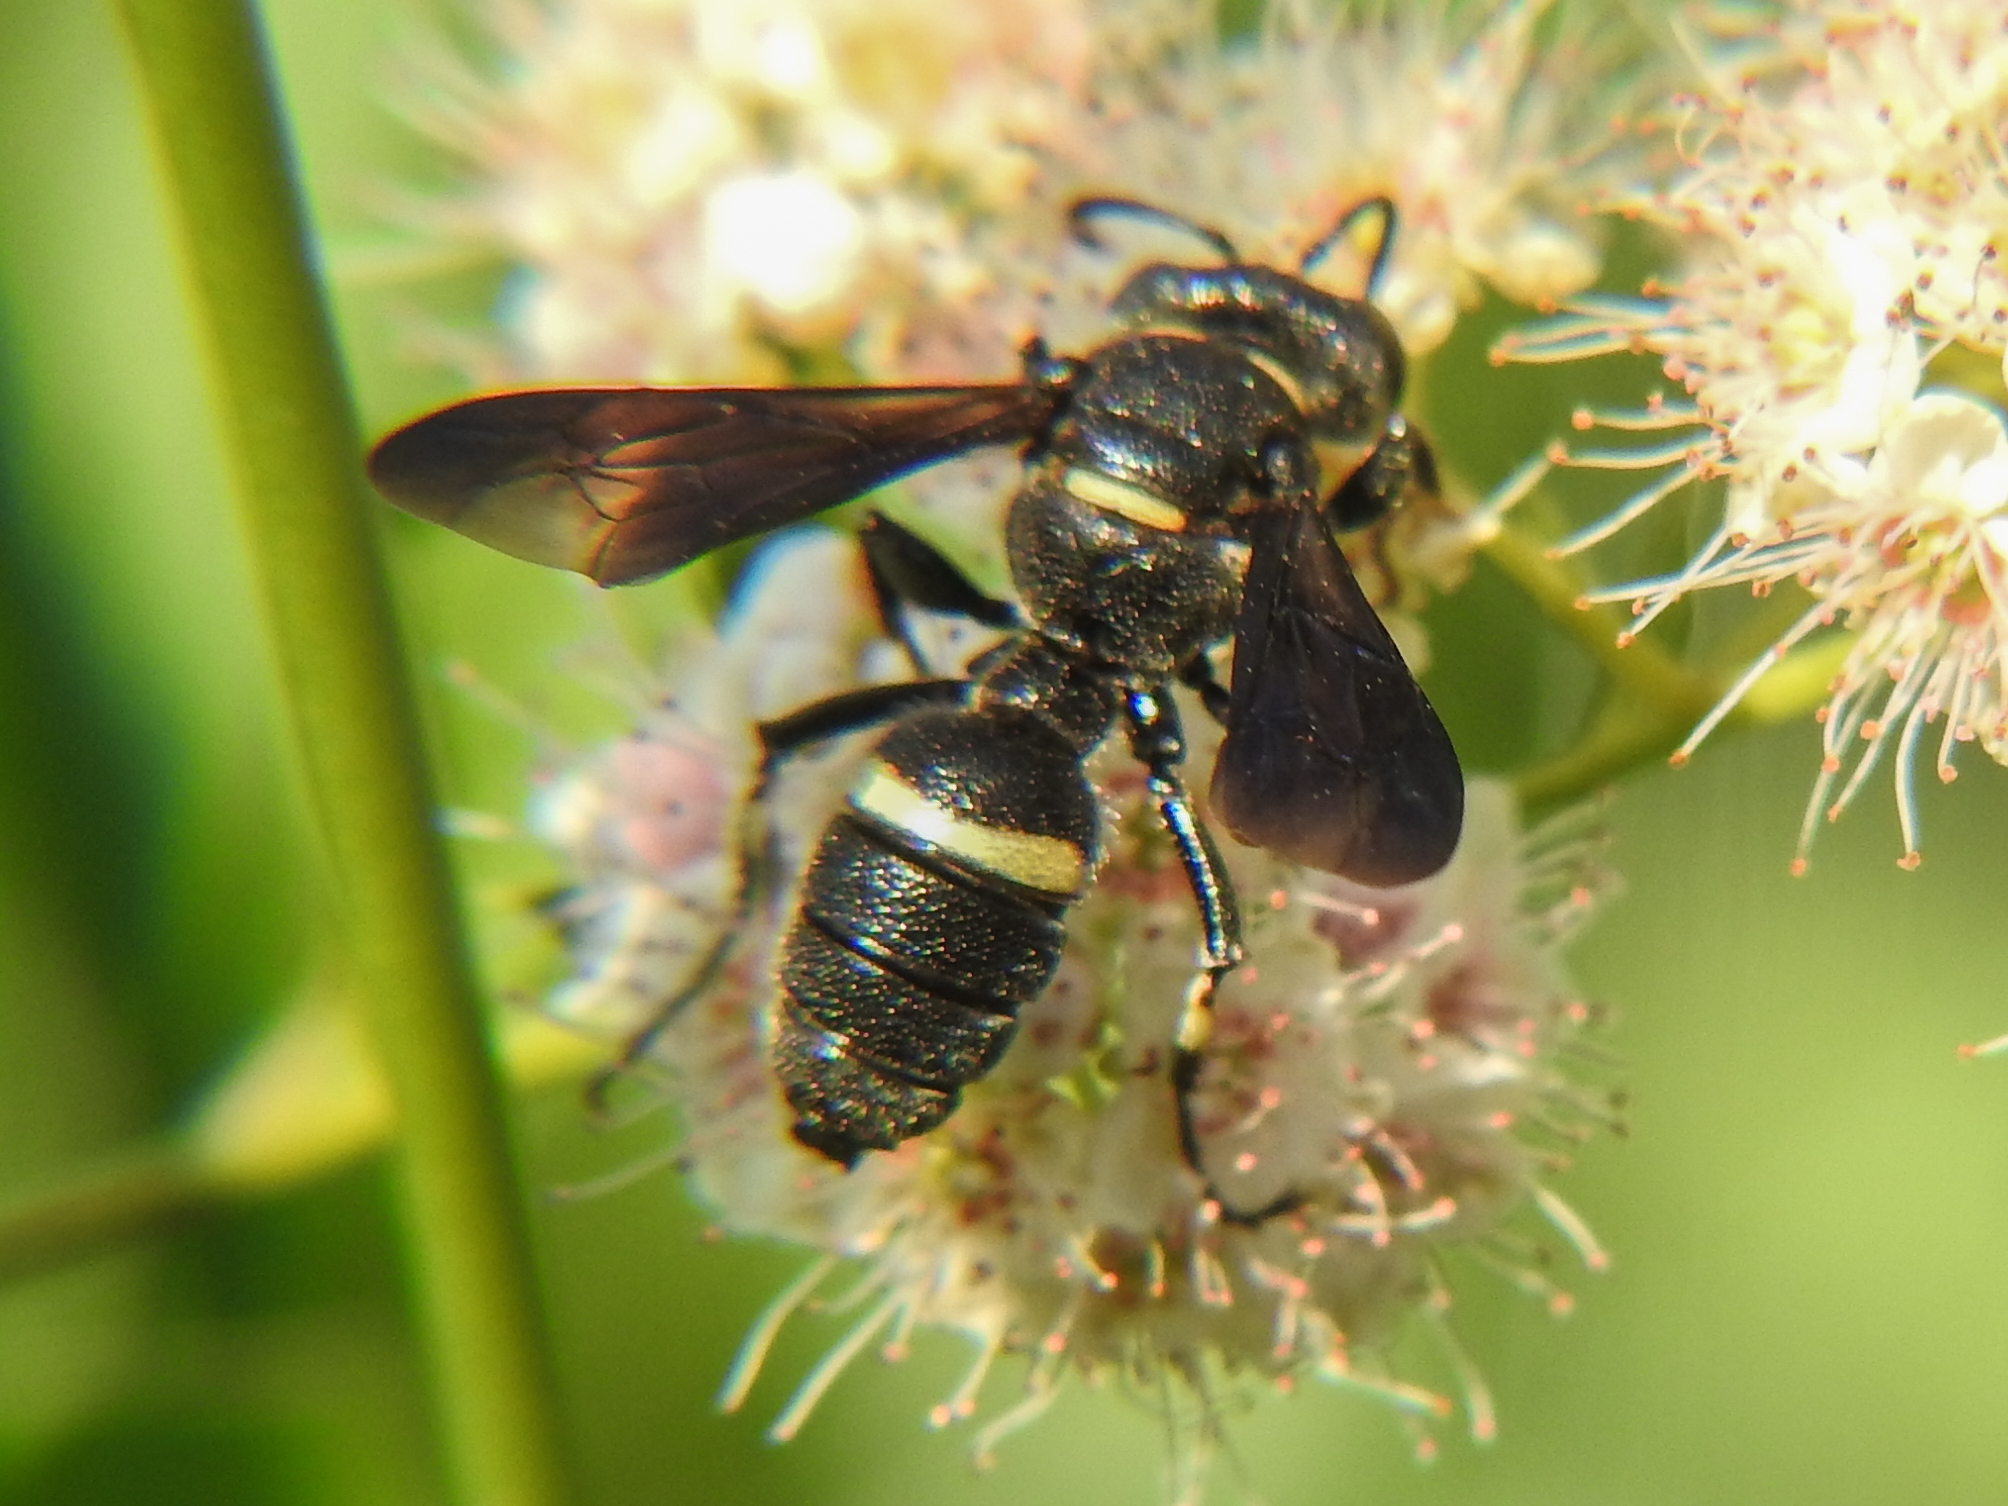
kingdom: Animalia
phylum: Arthropoda
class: Insecta
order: Hymenoptera
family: Crabronidae
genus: Cerceris
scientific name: Cerceris fumipennis
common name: Smokey-winged beetle bandit wasp
